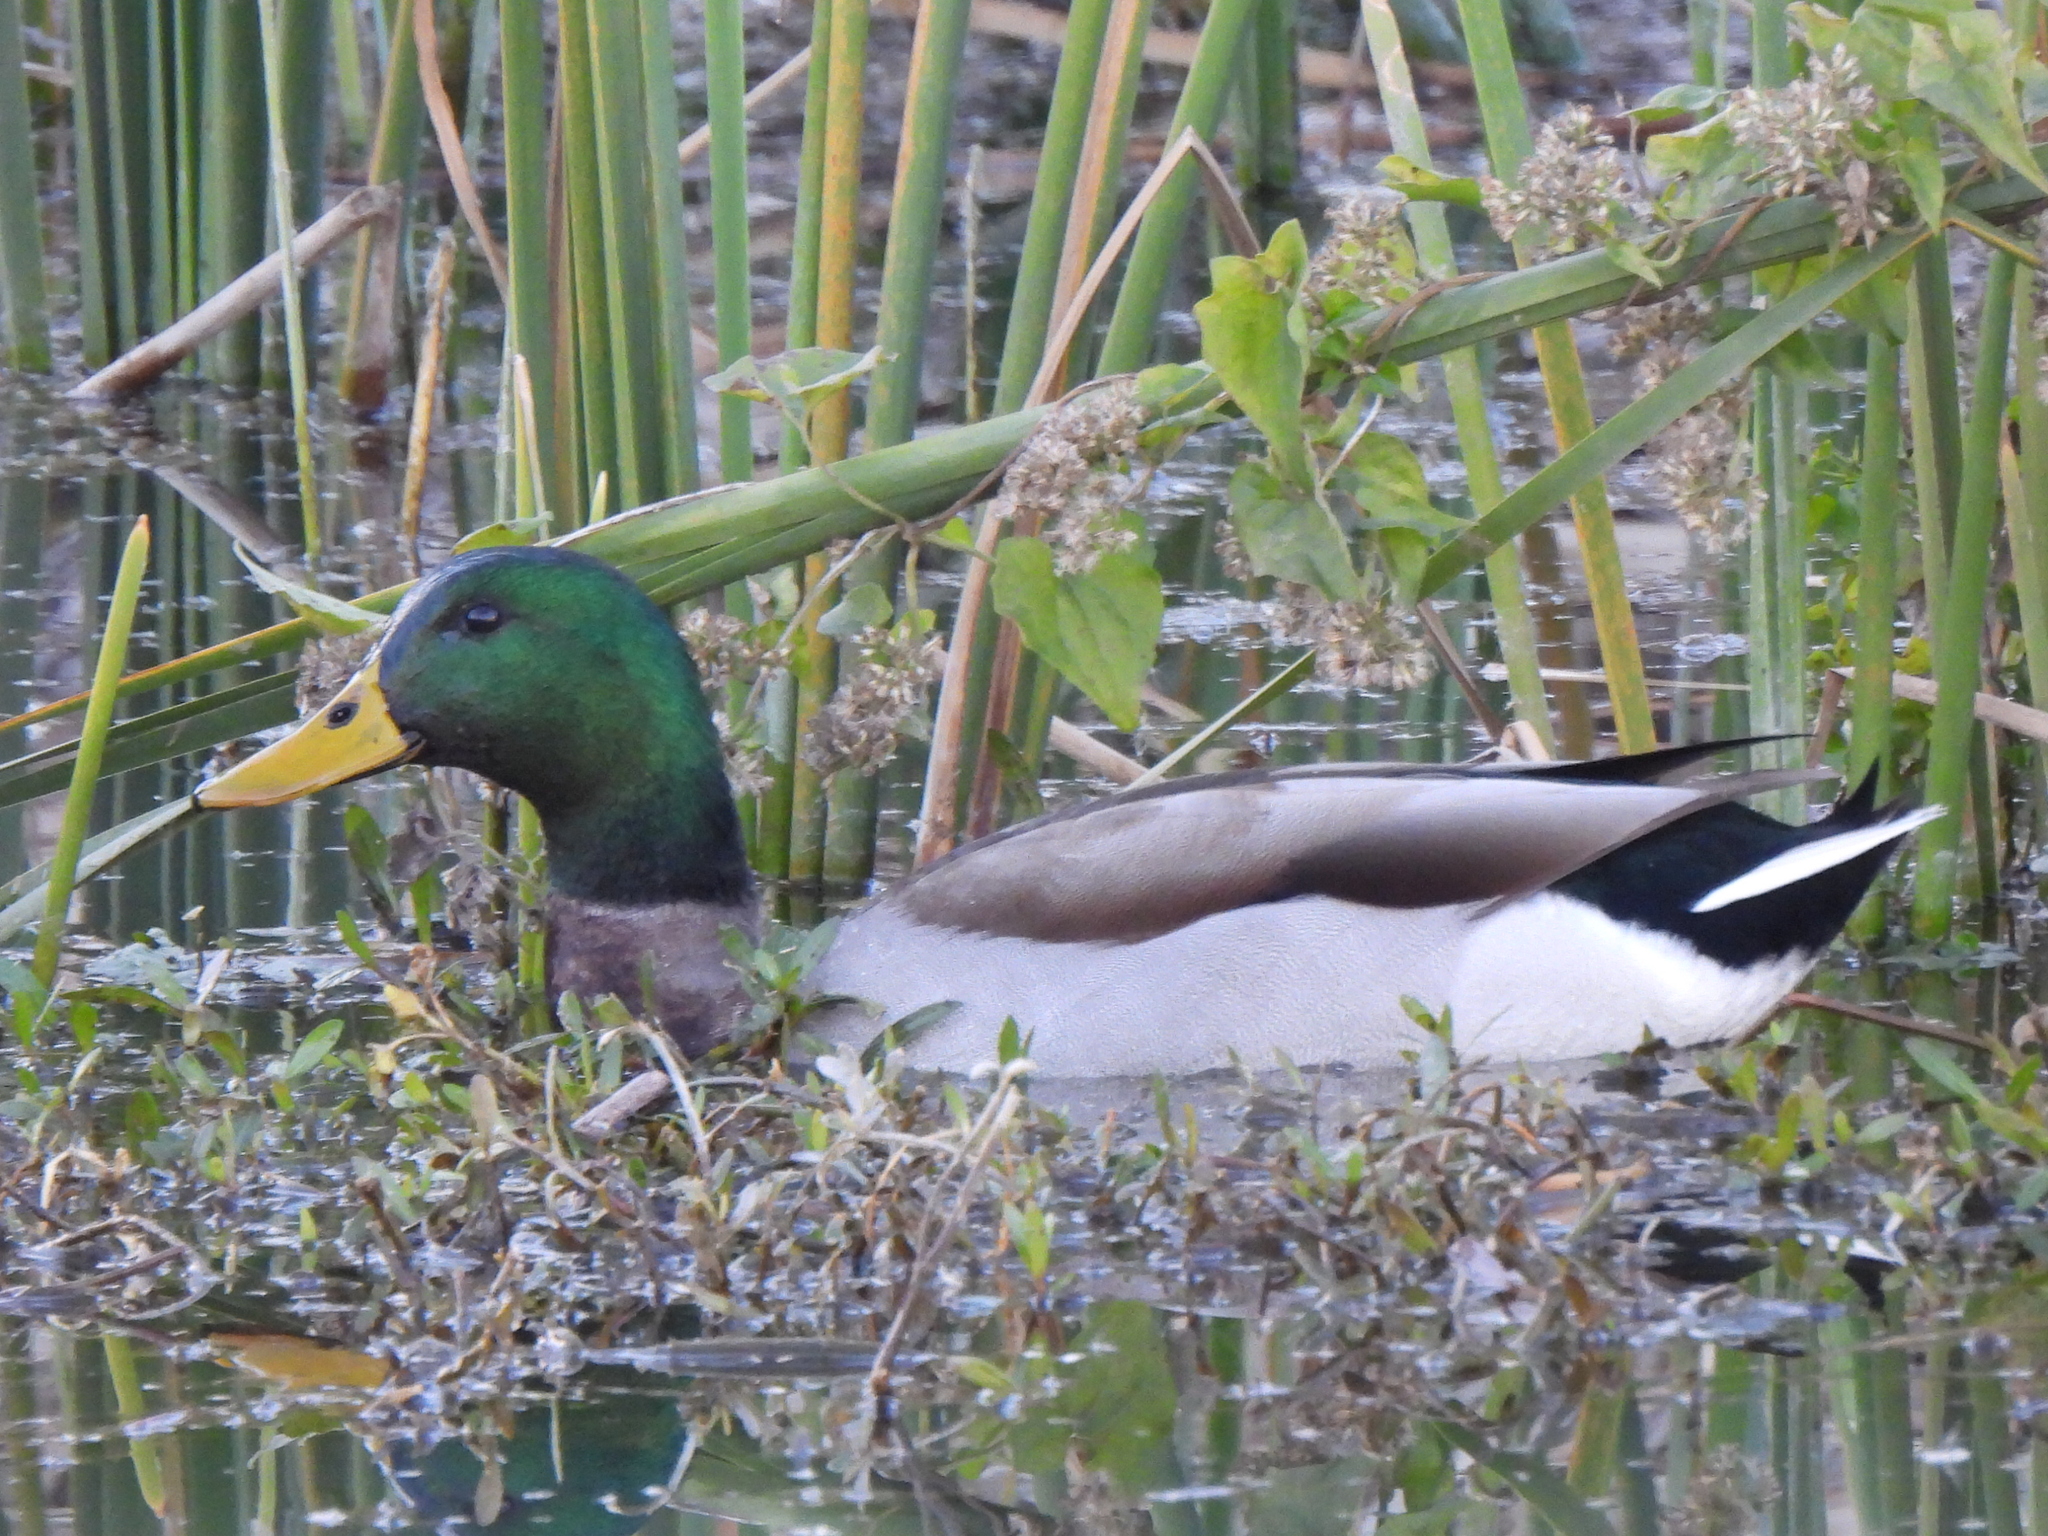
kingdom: Animalia
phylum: Chordata
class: Aves
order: Anseriformes
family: Anatidae
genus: Anas
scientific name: Anas platyrhynchos
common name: Mallard
